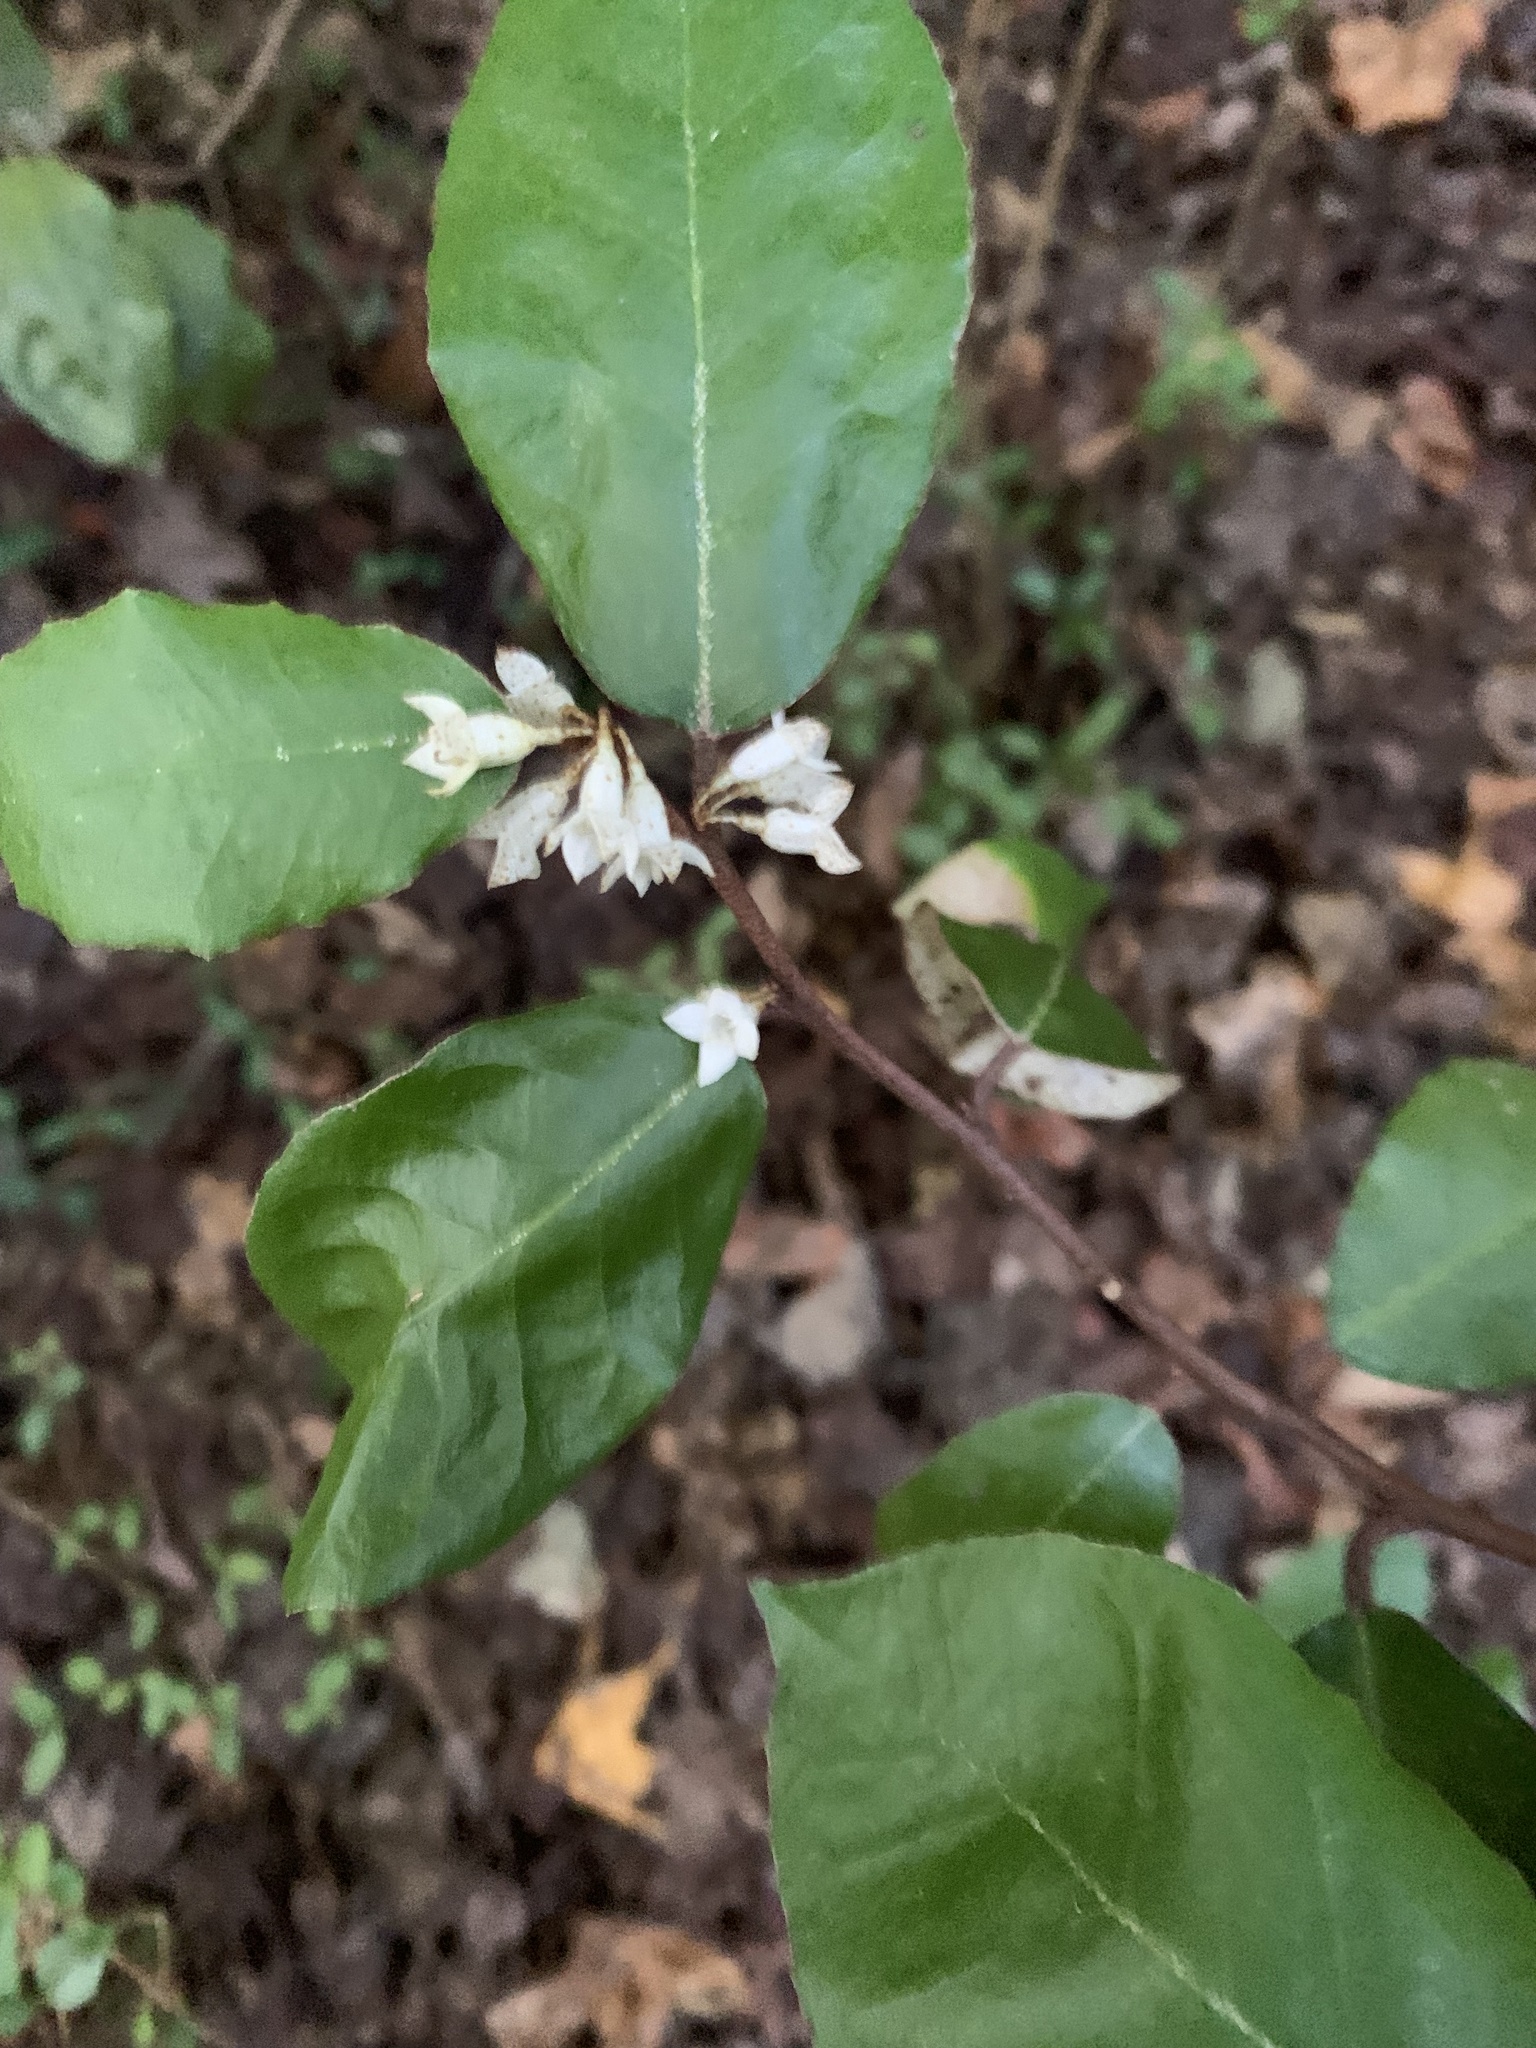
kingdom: Plantae
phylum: Tracheophyta
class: Magnoliopsida
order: Rosales
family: Elaeagnaceae
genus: Elaeagnus
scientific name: Elaeagnus pungens
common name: Spiny oleaster
